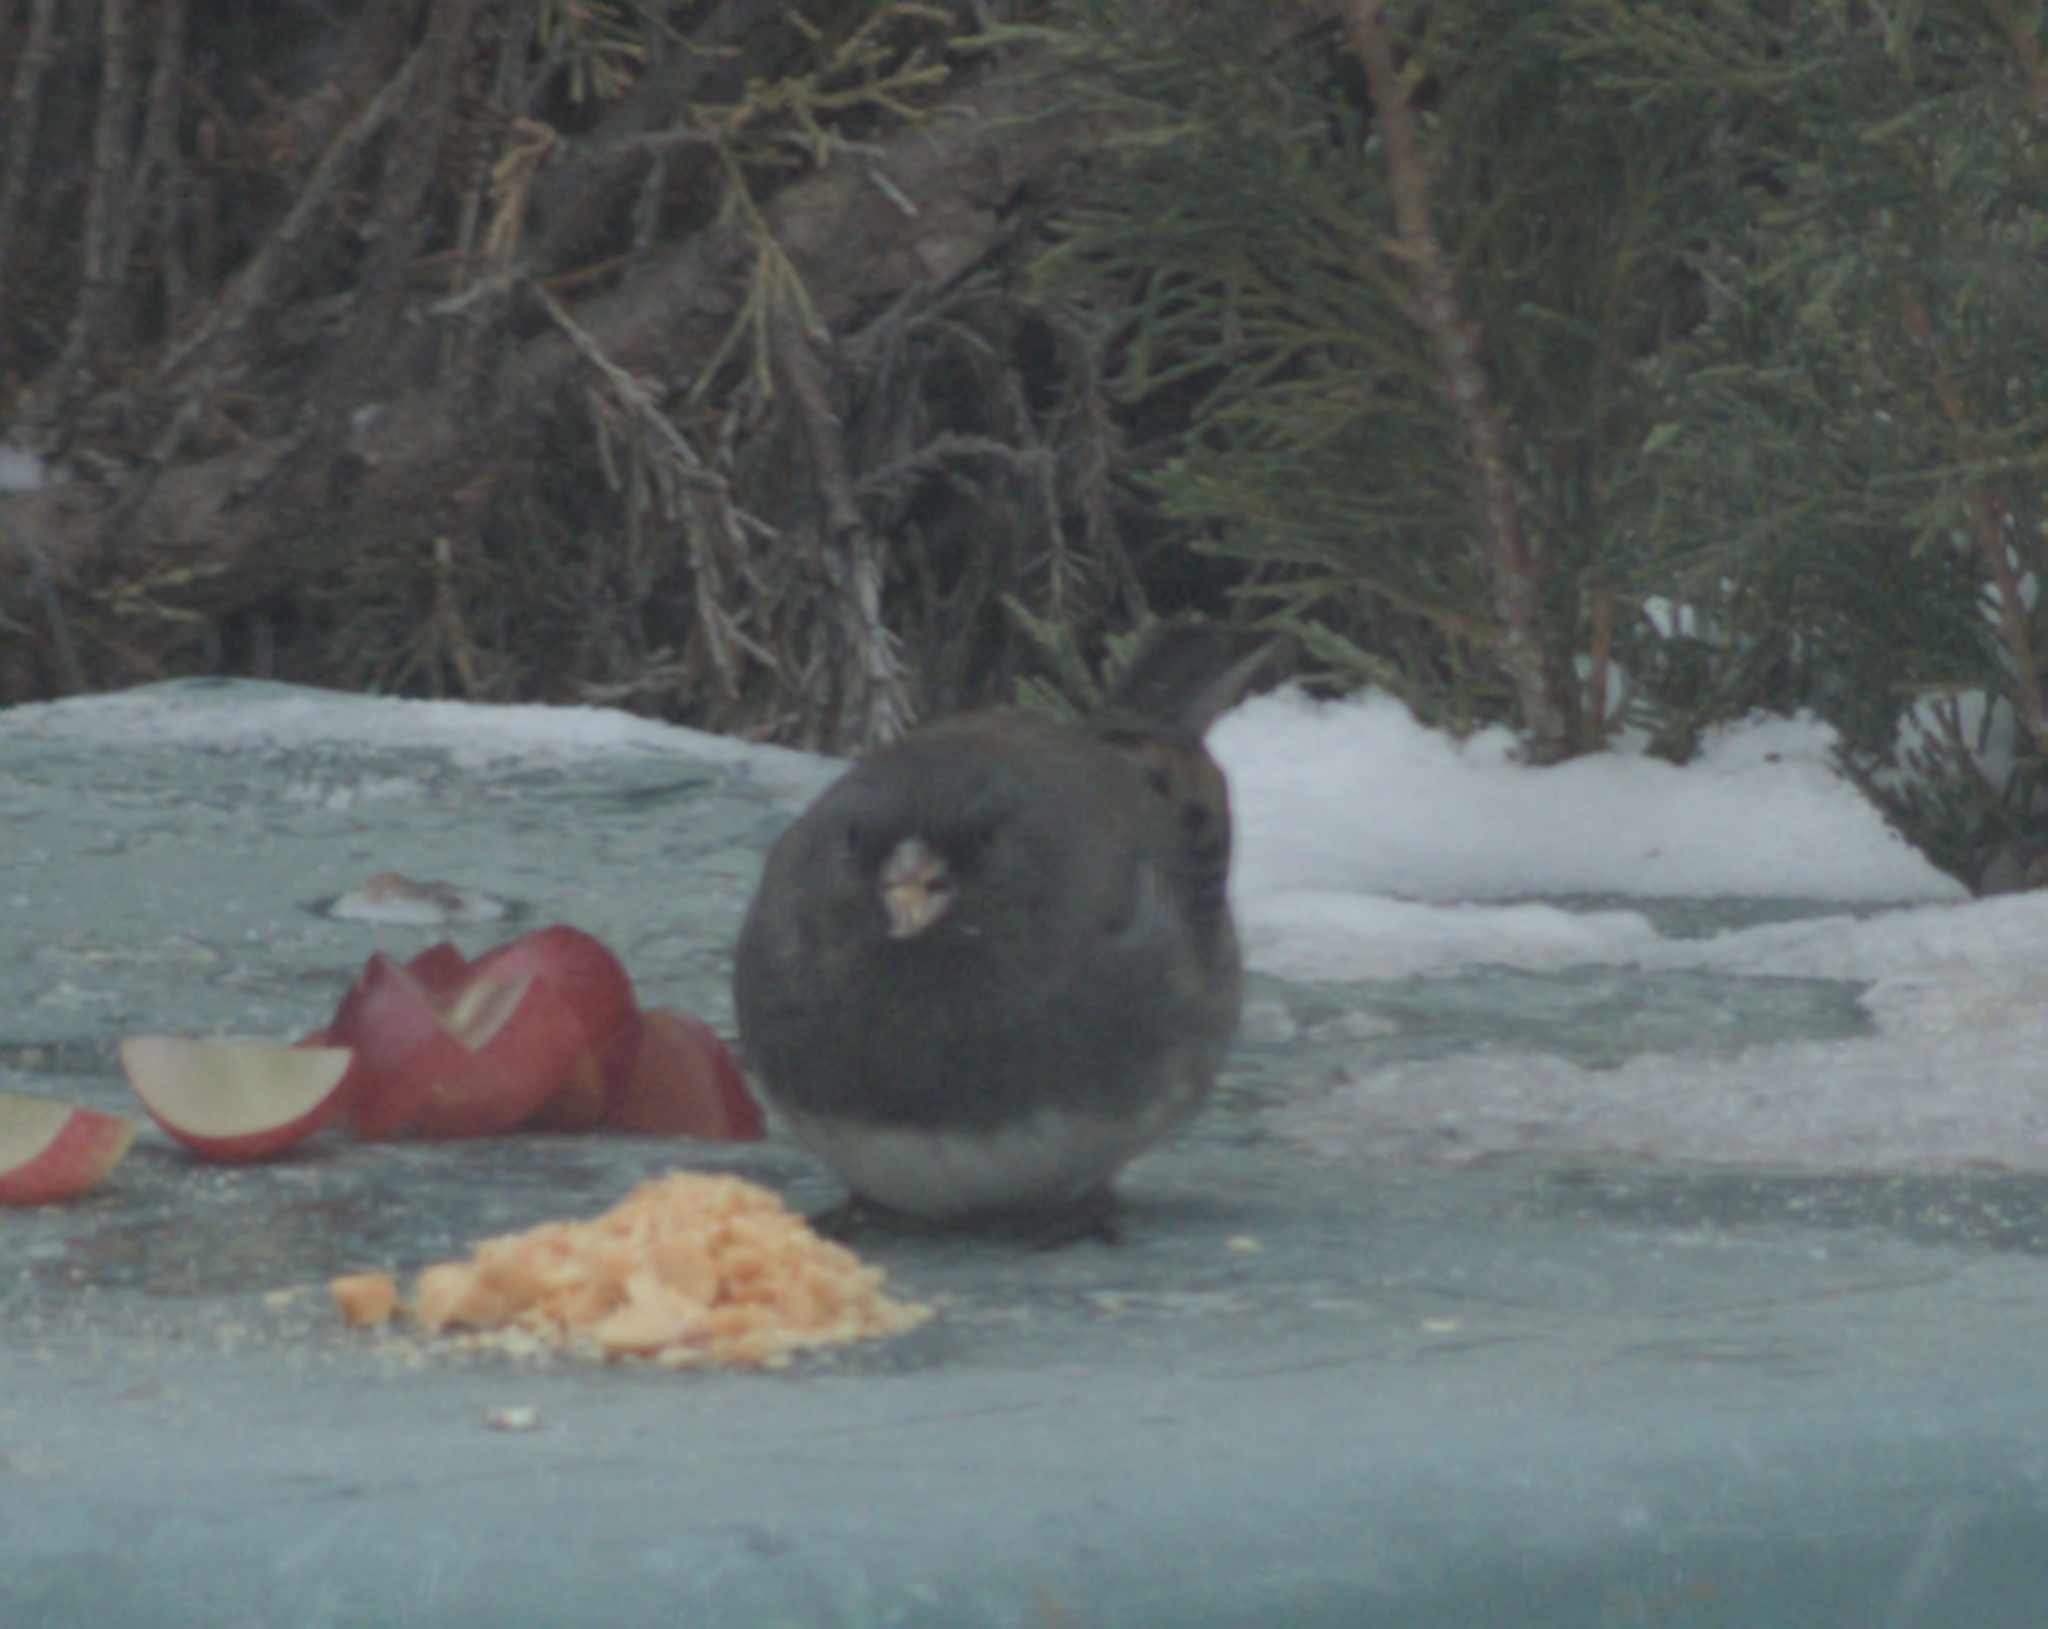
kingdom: Animalia
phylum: Chordata
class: Aves
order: Passeriformes
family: Passerellidae
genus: Junco
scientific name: Junco hyemalis
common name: Dark-eyed junco
